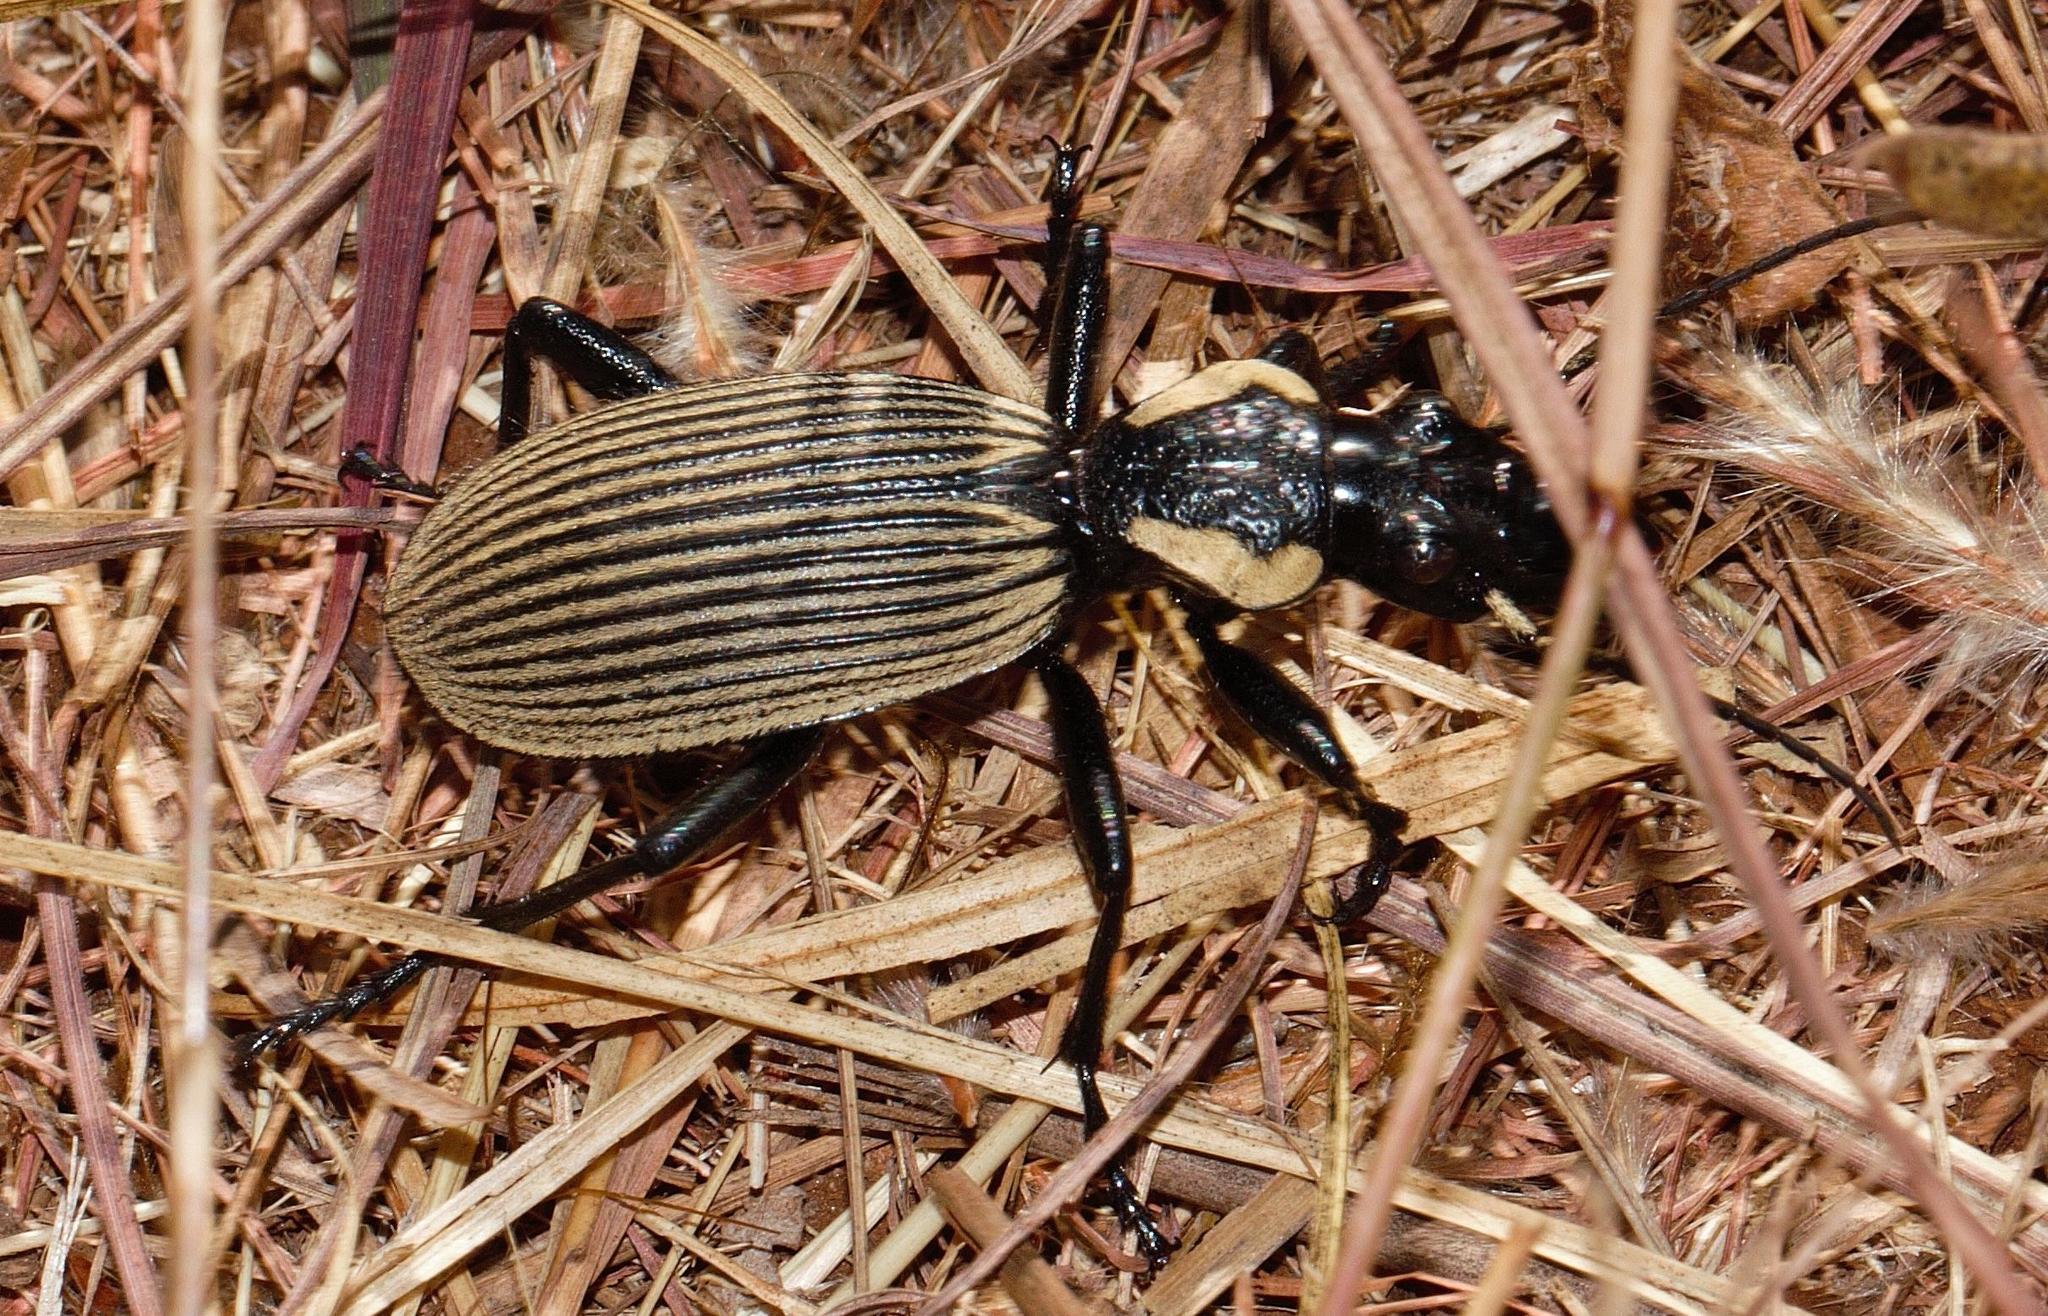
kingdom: Animalia
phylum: Arthropoda
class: Insecta
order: Coleoptera
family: Carabidae
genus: Anthia
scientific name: Anthia burchelli
